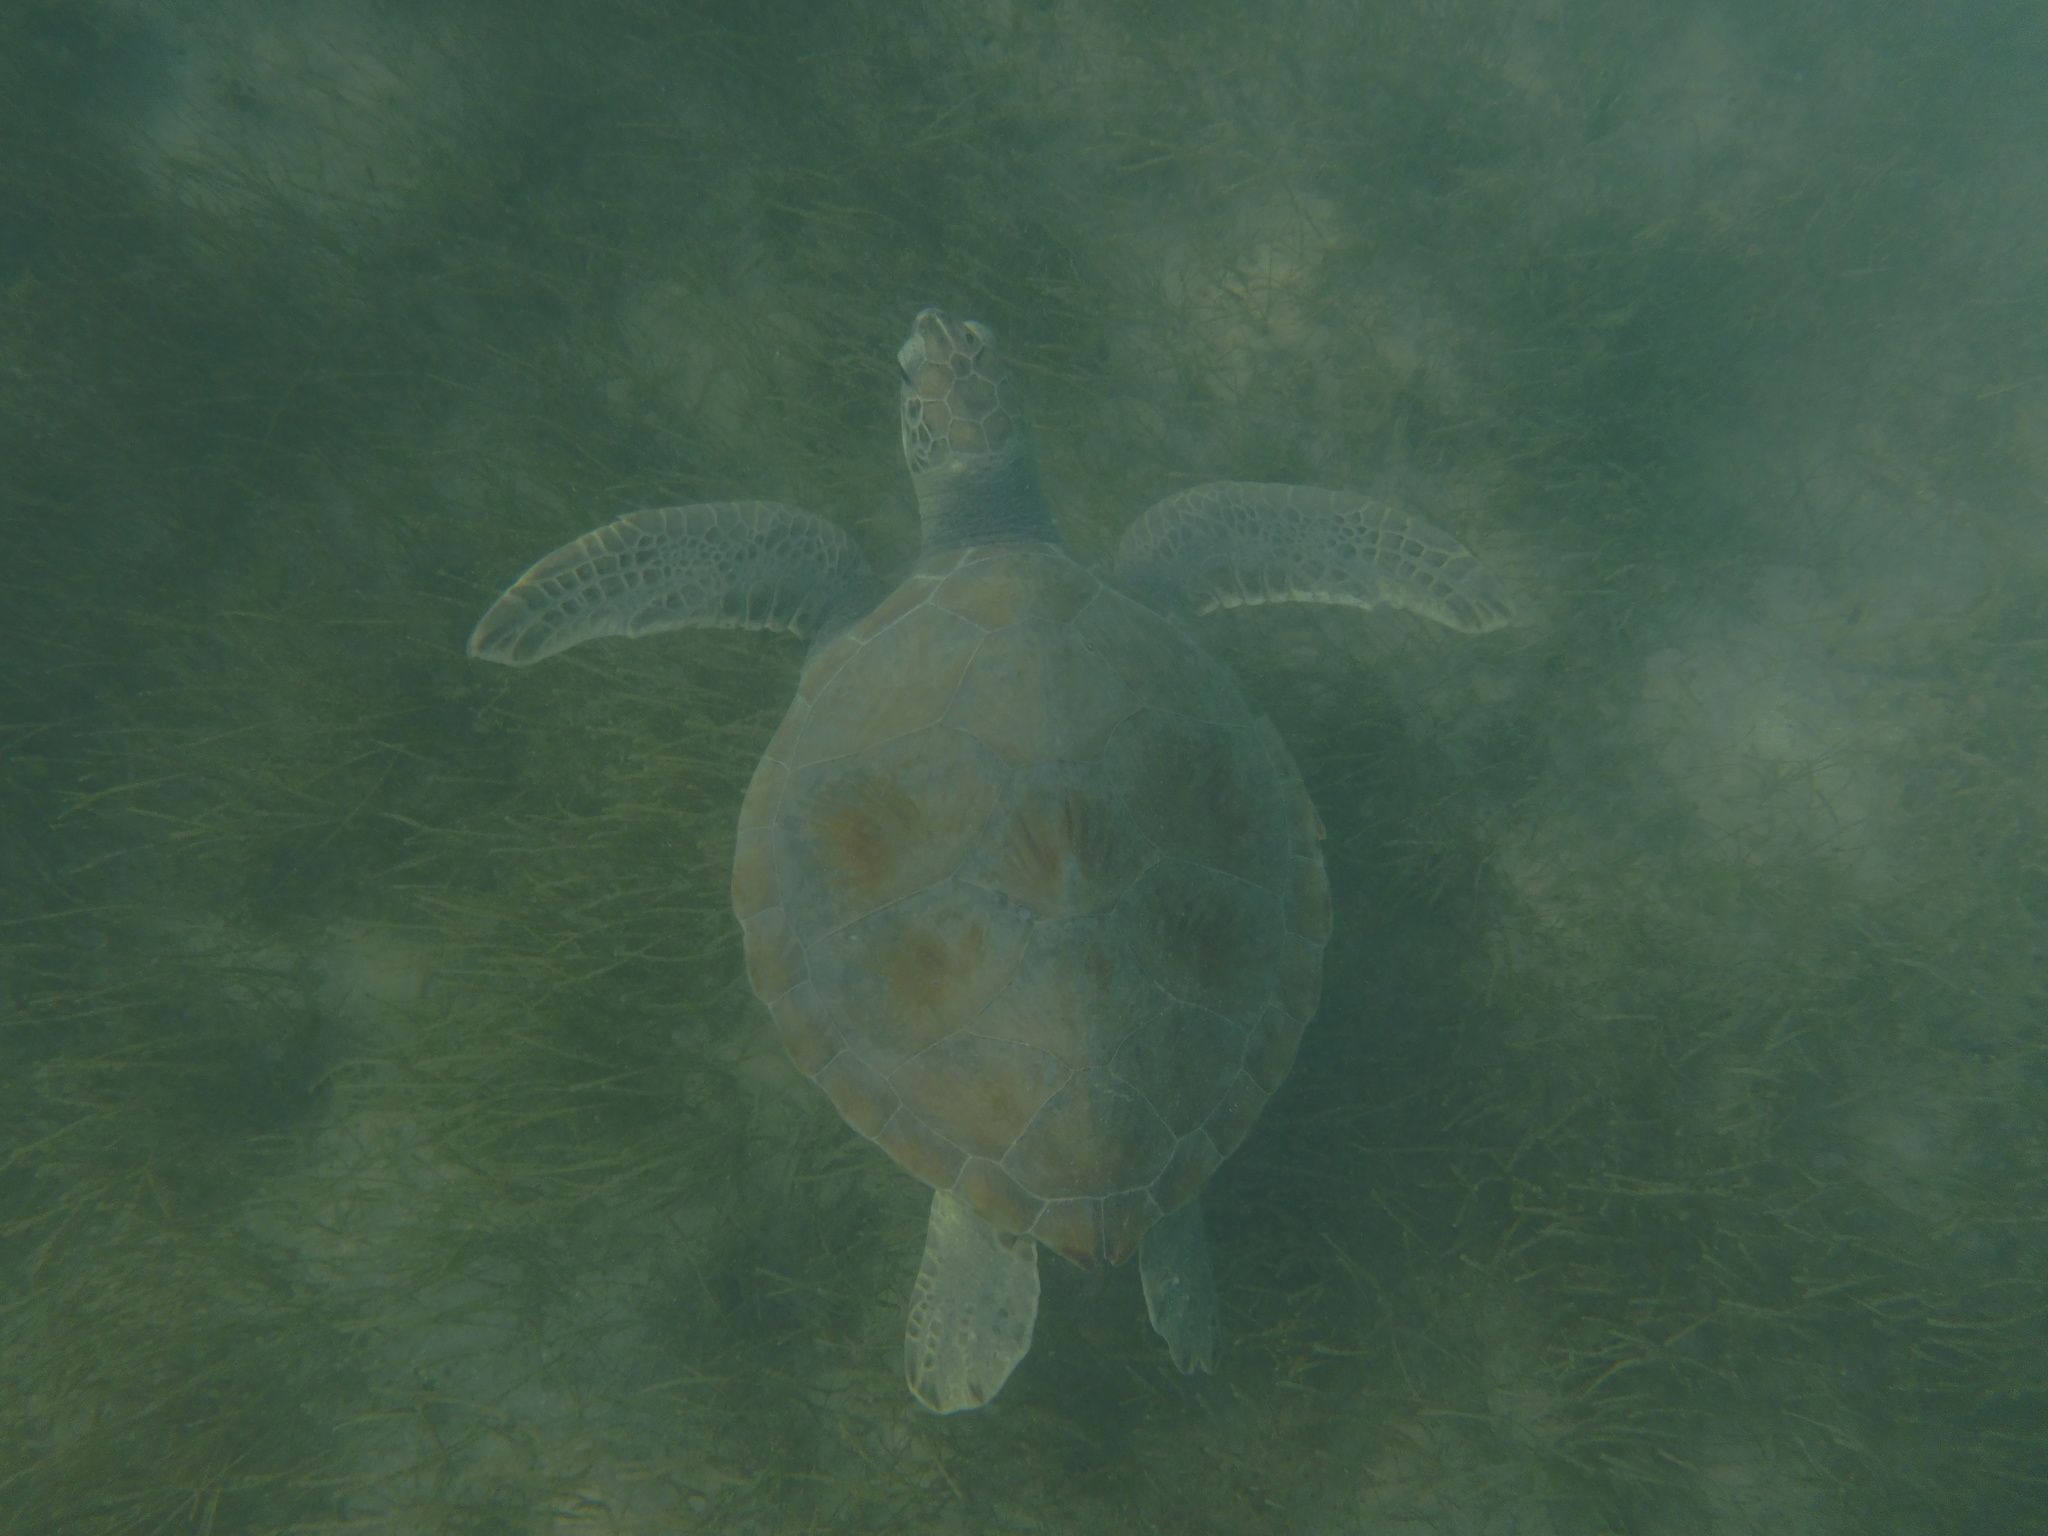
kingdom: Animalia
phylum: Chordata
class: Testudines
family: Cheloniidae
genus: Chelonia
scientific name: Chelonia mydas
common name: Green turtle
